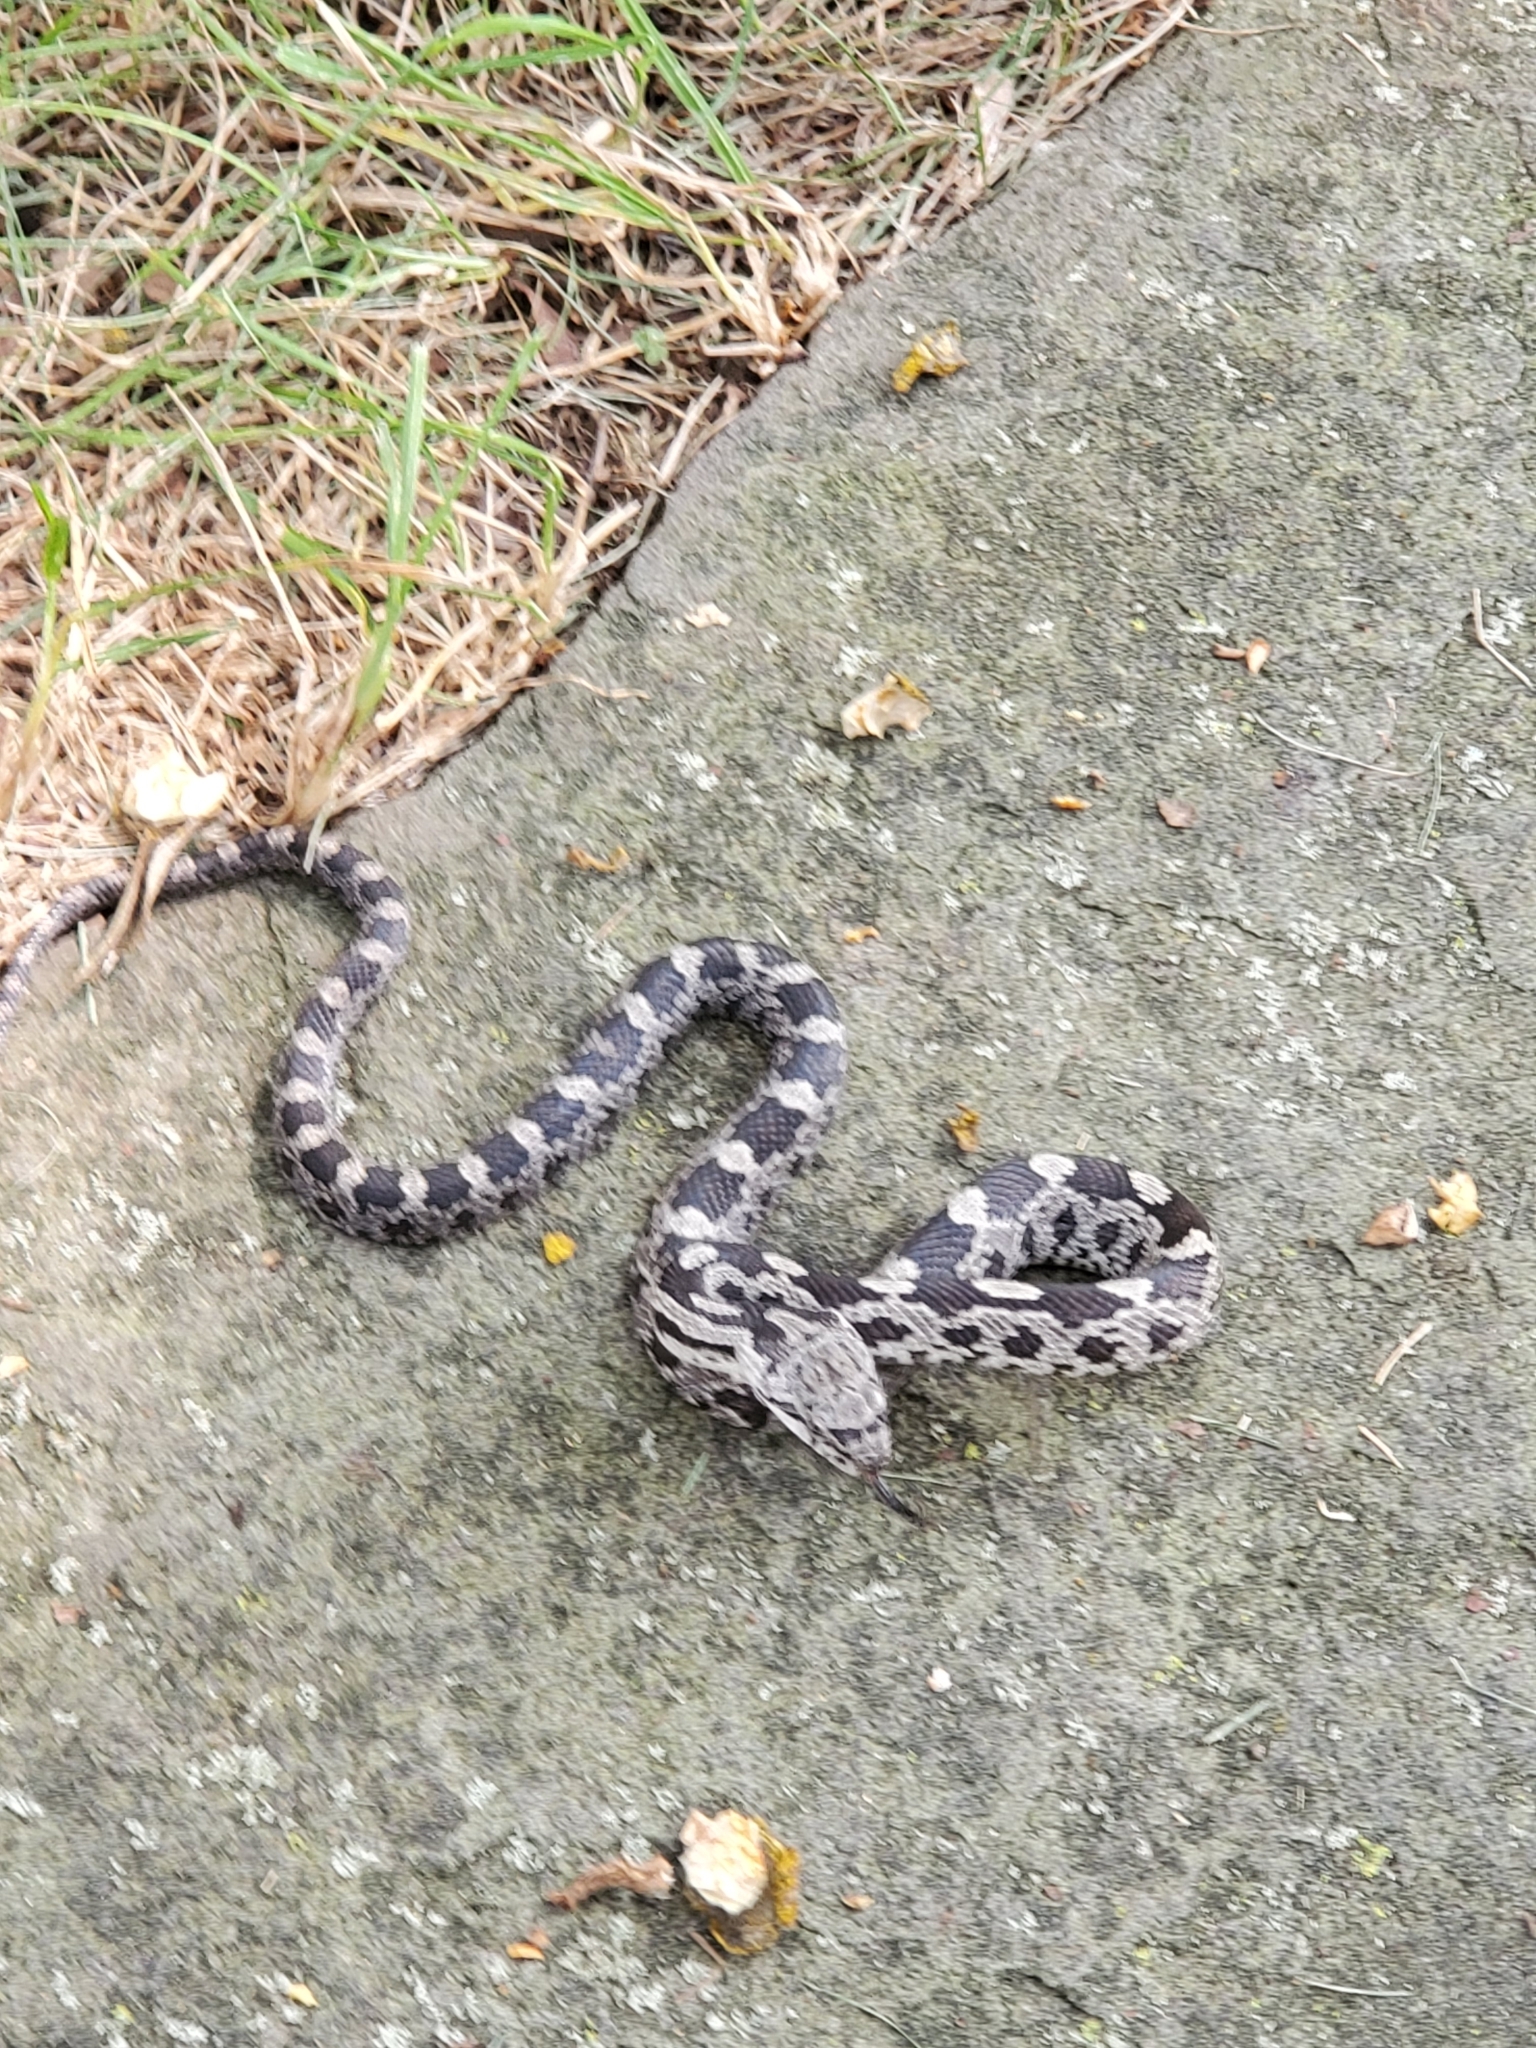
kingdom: Animalia
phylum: Chordata
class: Squamata
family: Colubridae
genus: Pantherophis
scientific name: Pantherophis alleghaniensis
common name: Eastern rat snake
